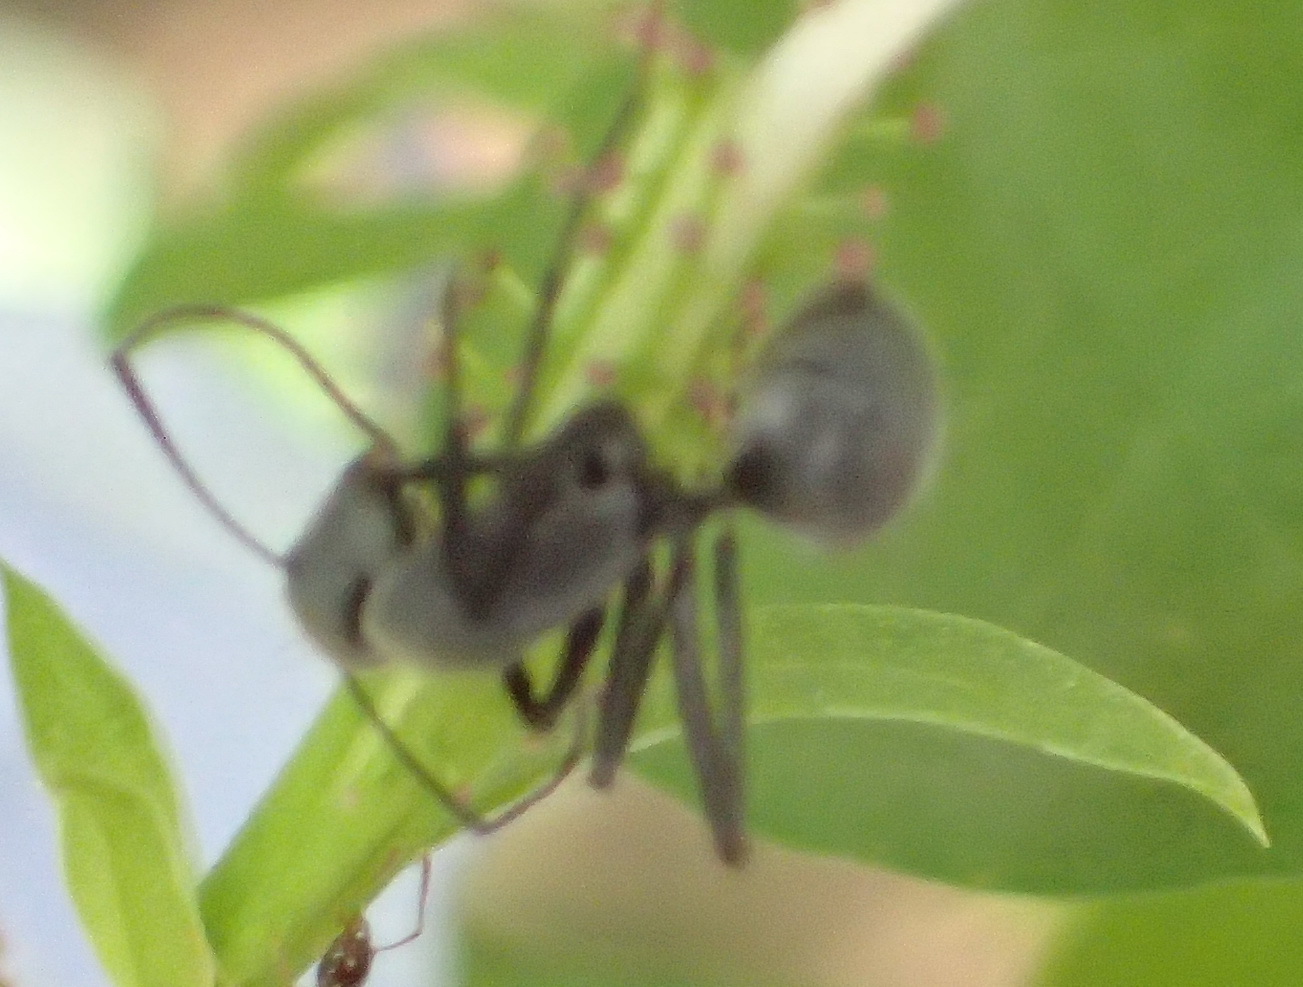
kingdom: Animalia
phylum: Arthropoda
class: Insecta
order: Hymenoptera
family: Formicidae
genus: Camponotus
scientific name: Camponotus petersii
